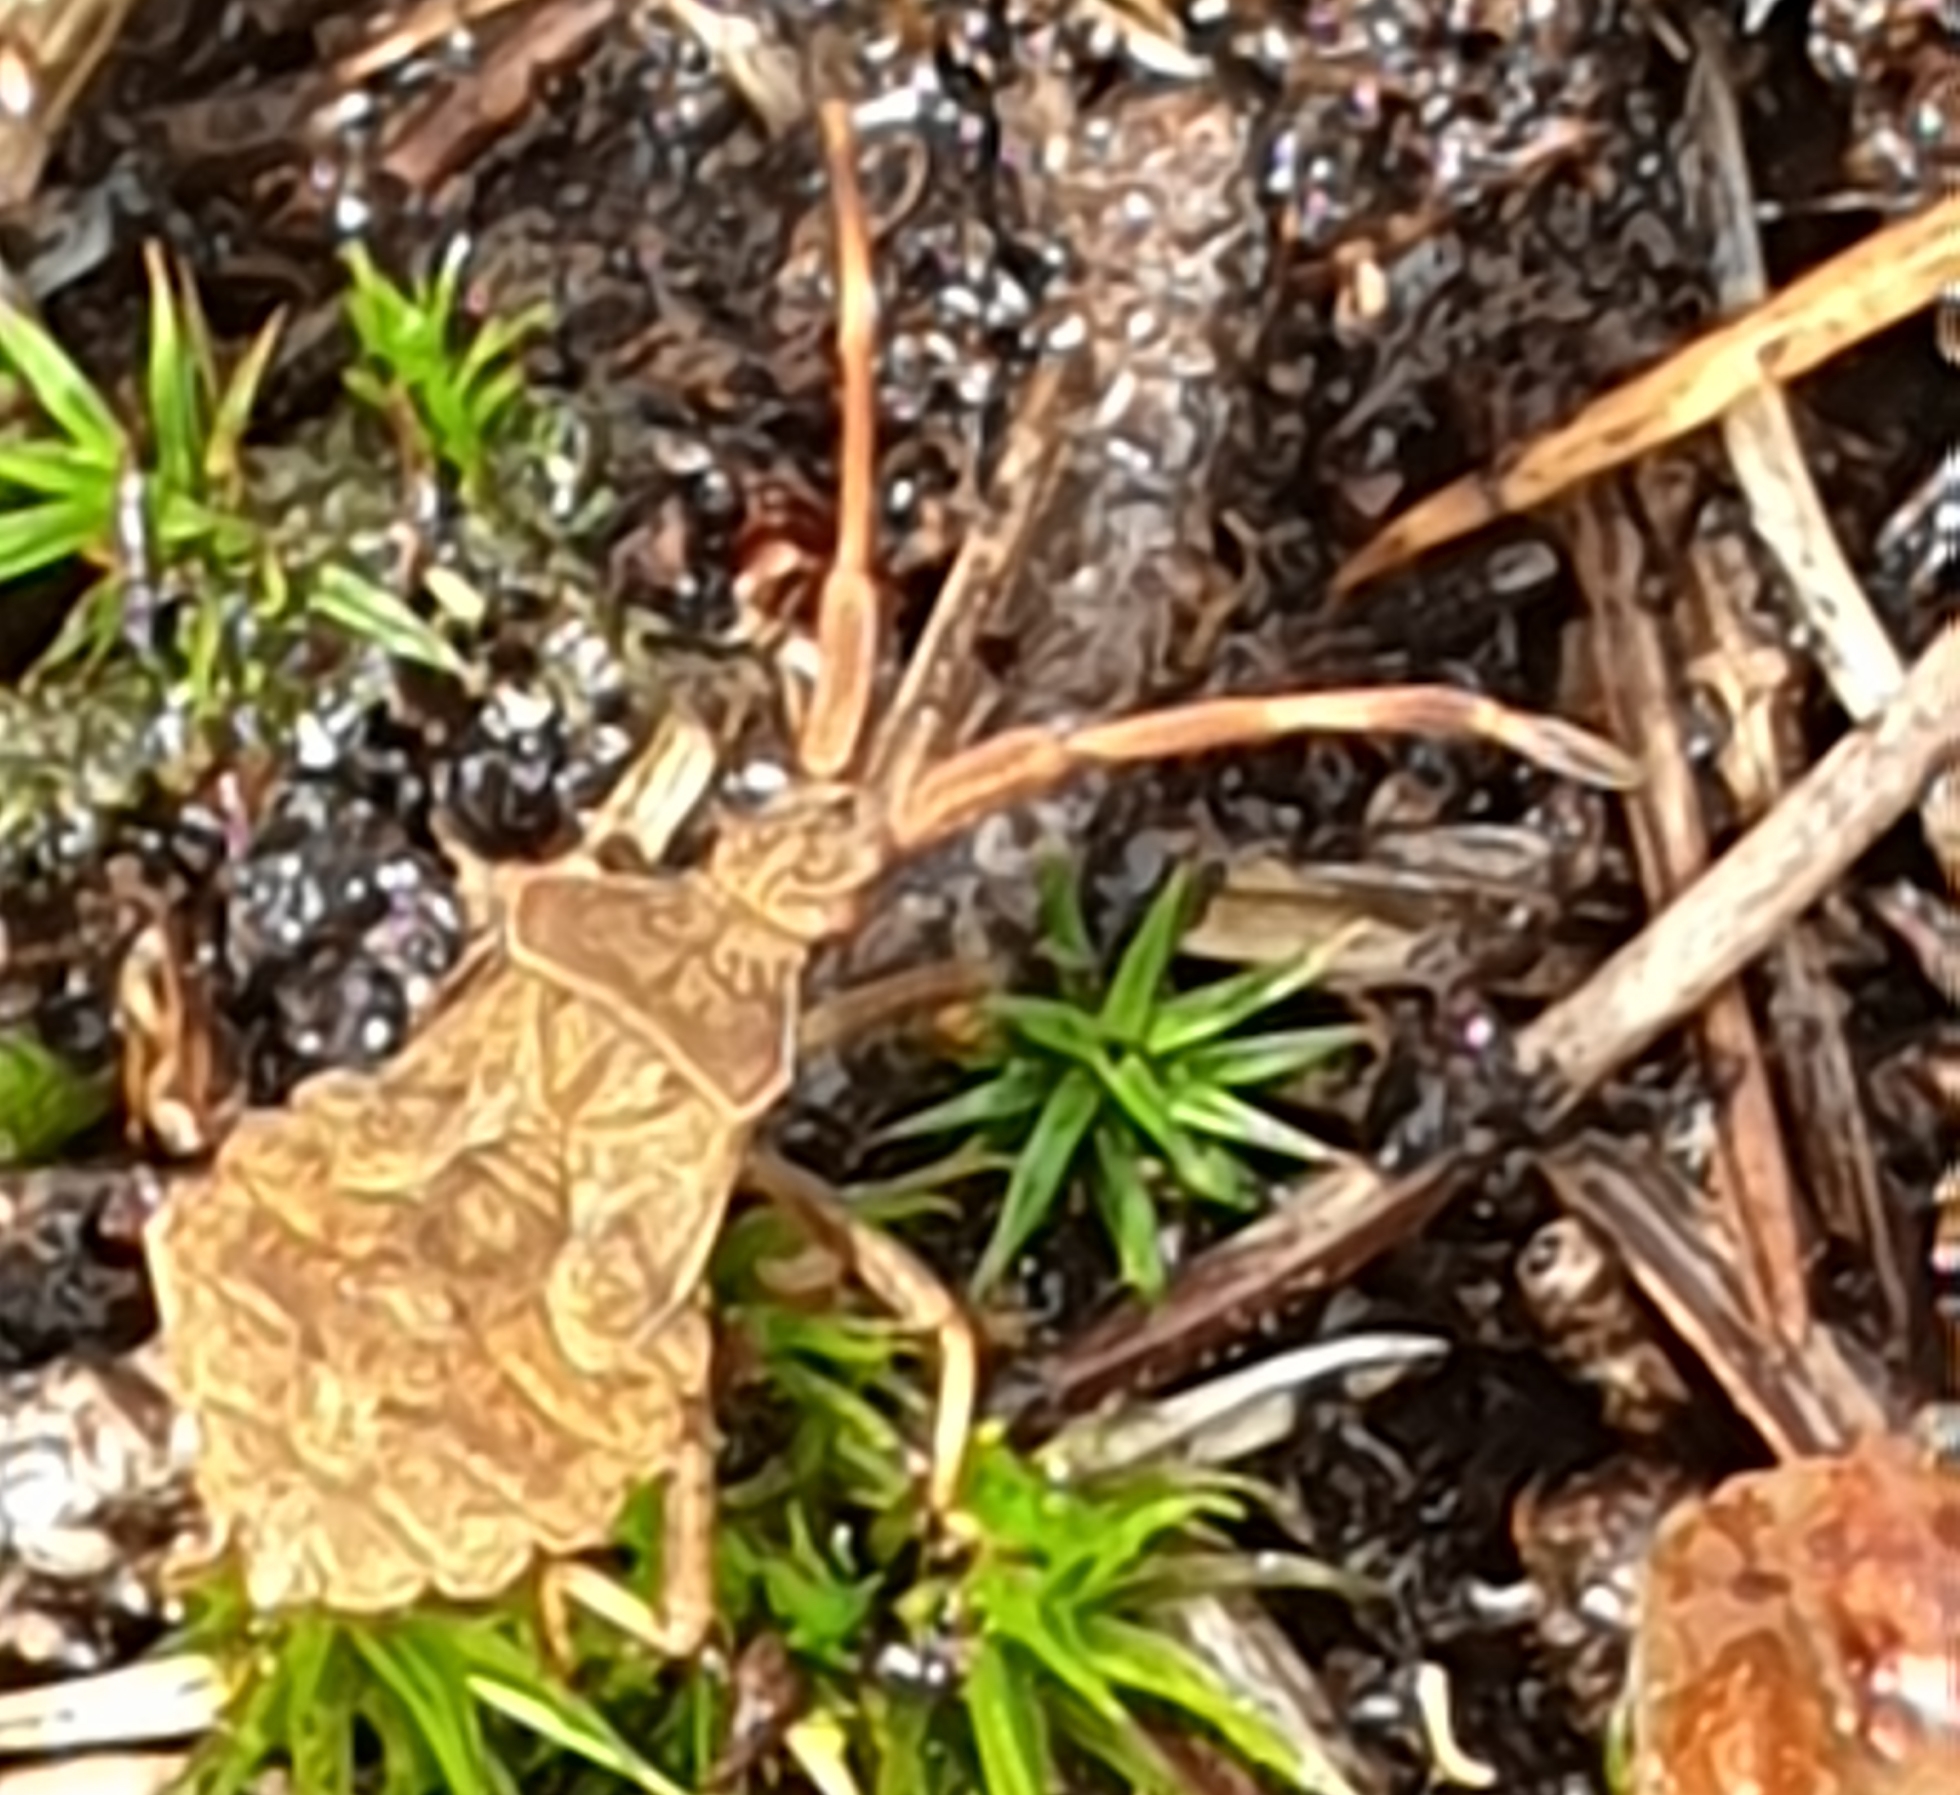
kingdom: Animalia
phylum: Arthropoda
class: Insecta
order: Hemiptera
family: Coreidae
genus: Coreus
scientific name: Coreus marginatus
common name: Dock bug
